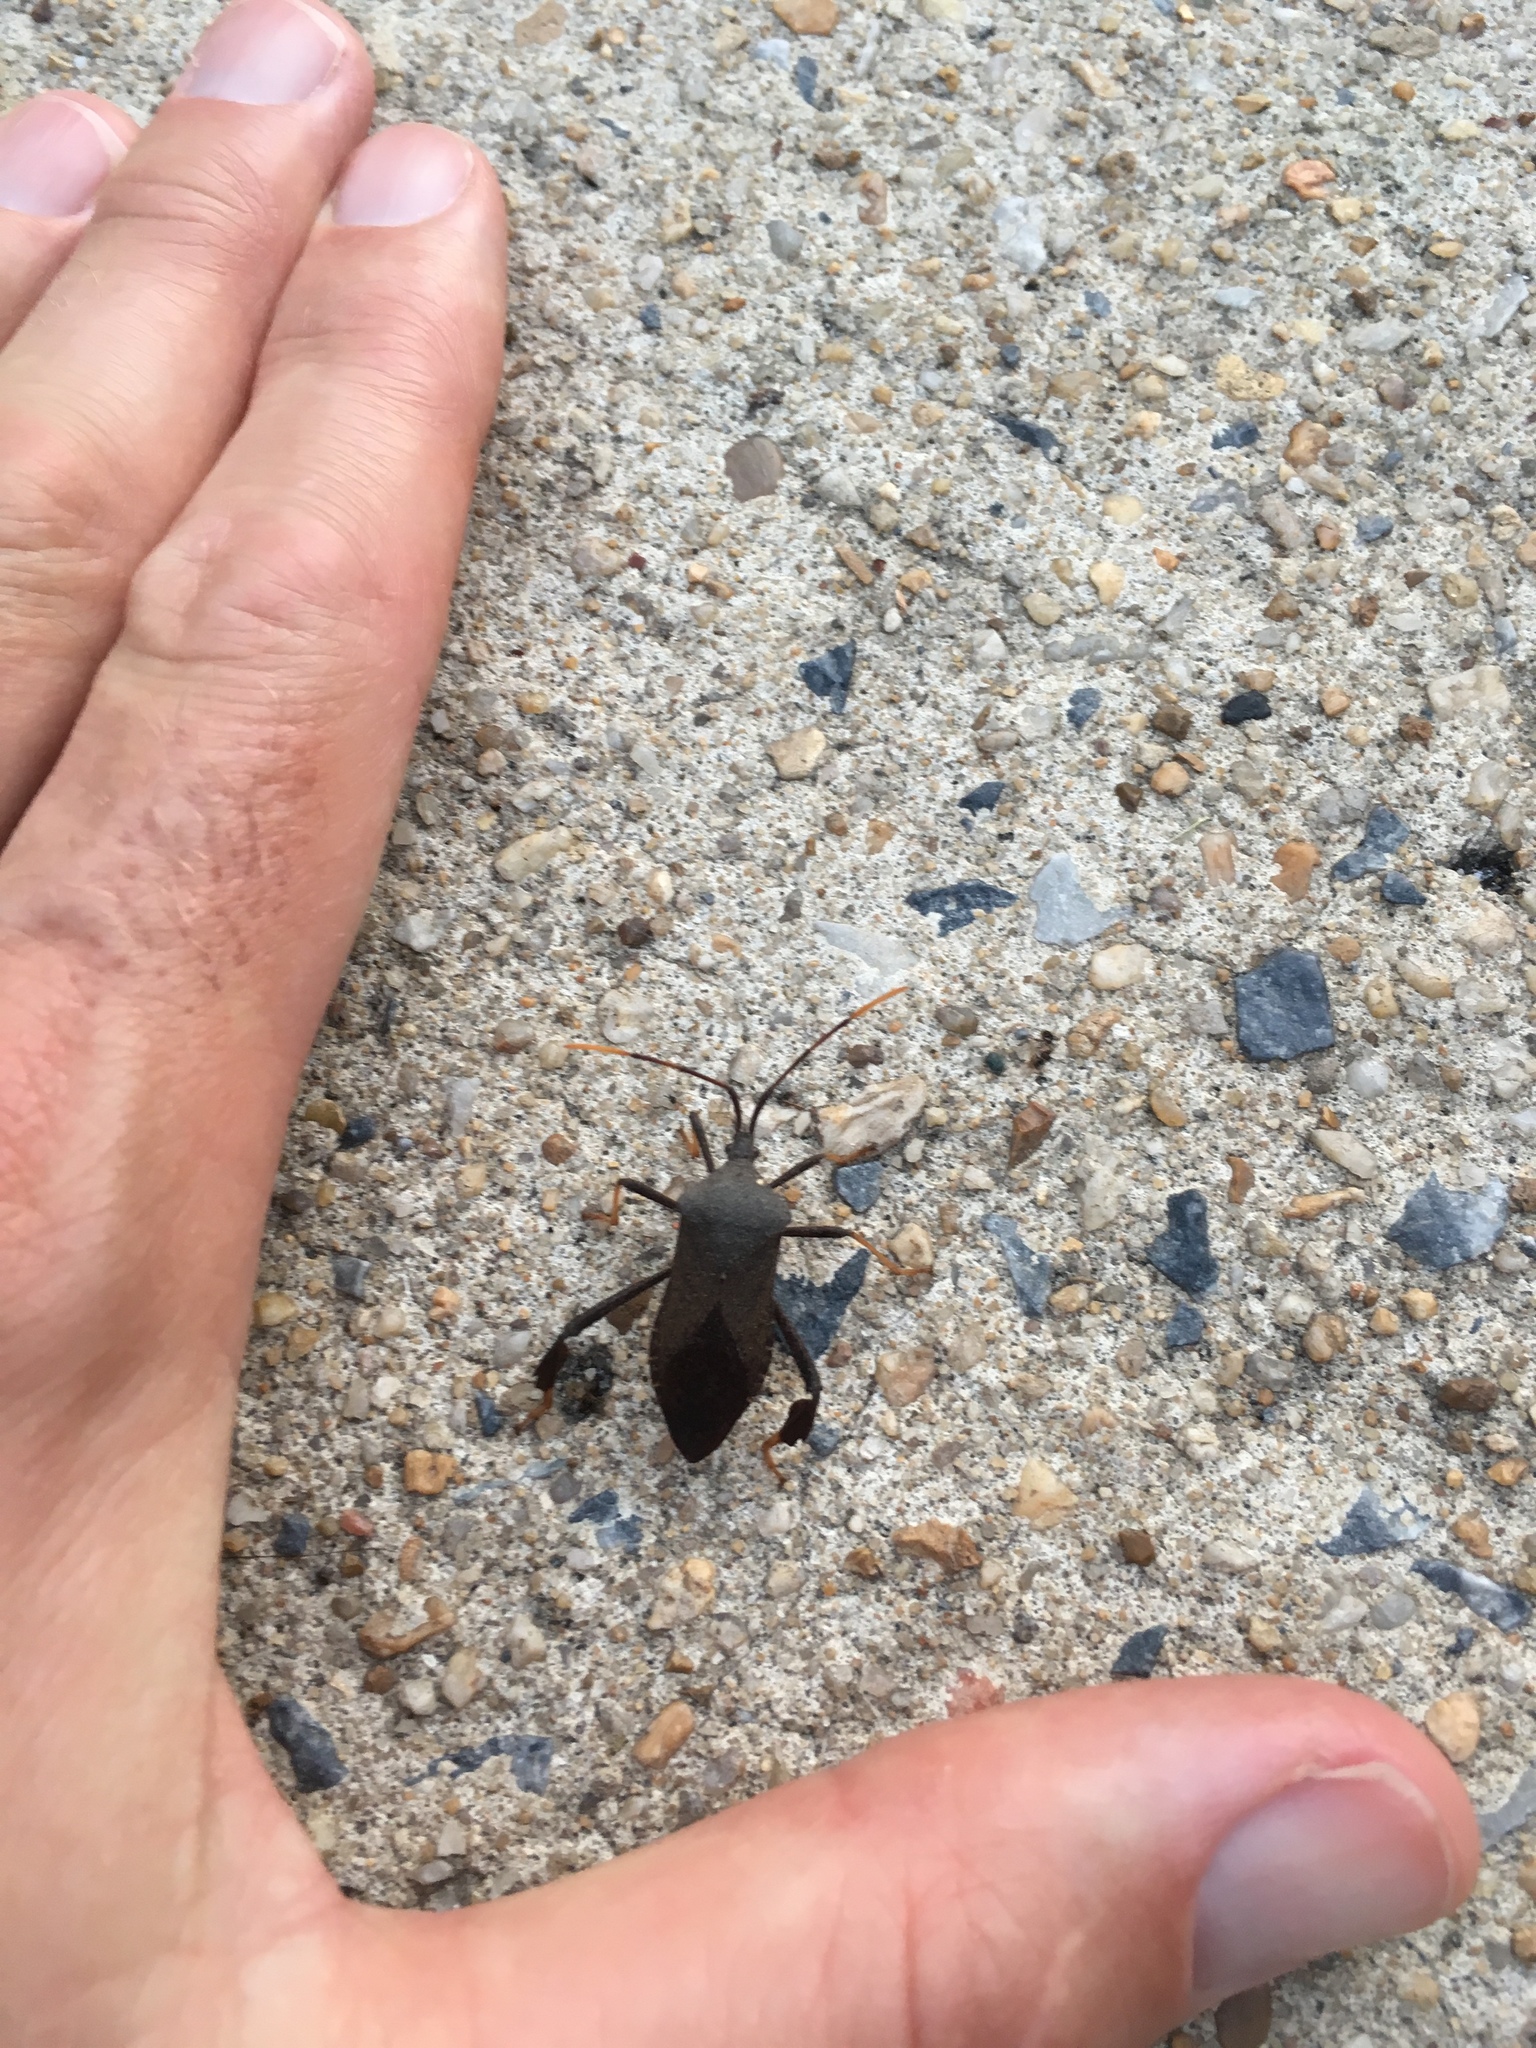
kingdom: Animalia
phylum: Arthropoda
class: Insecta
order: Hemiptera
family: Coreidae
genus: Acanthocephala
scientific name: Acanthocephala terminalis
